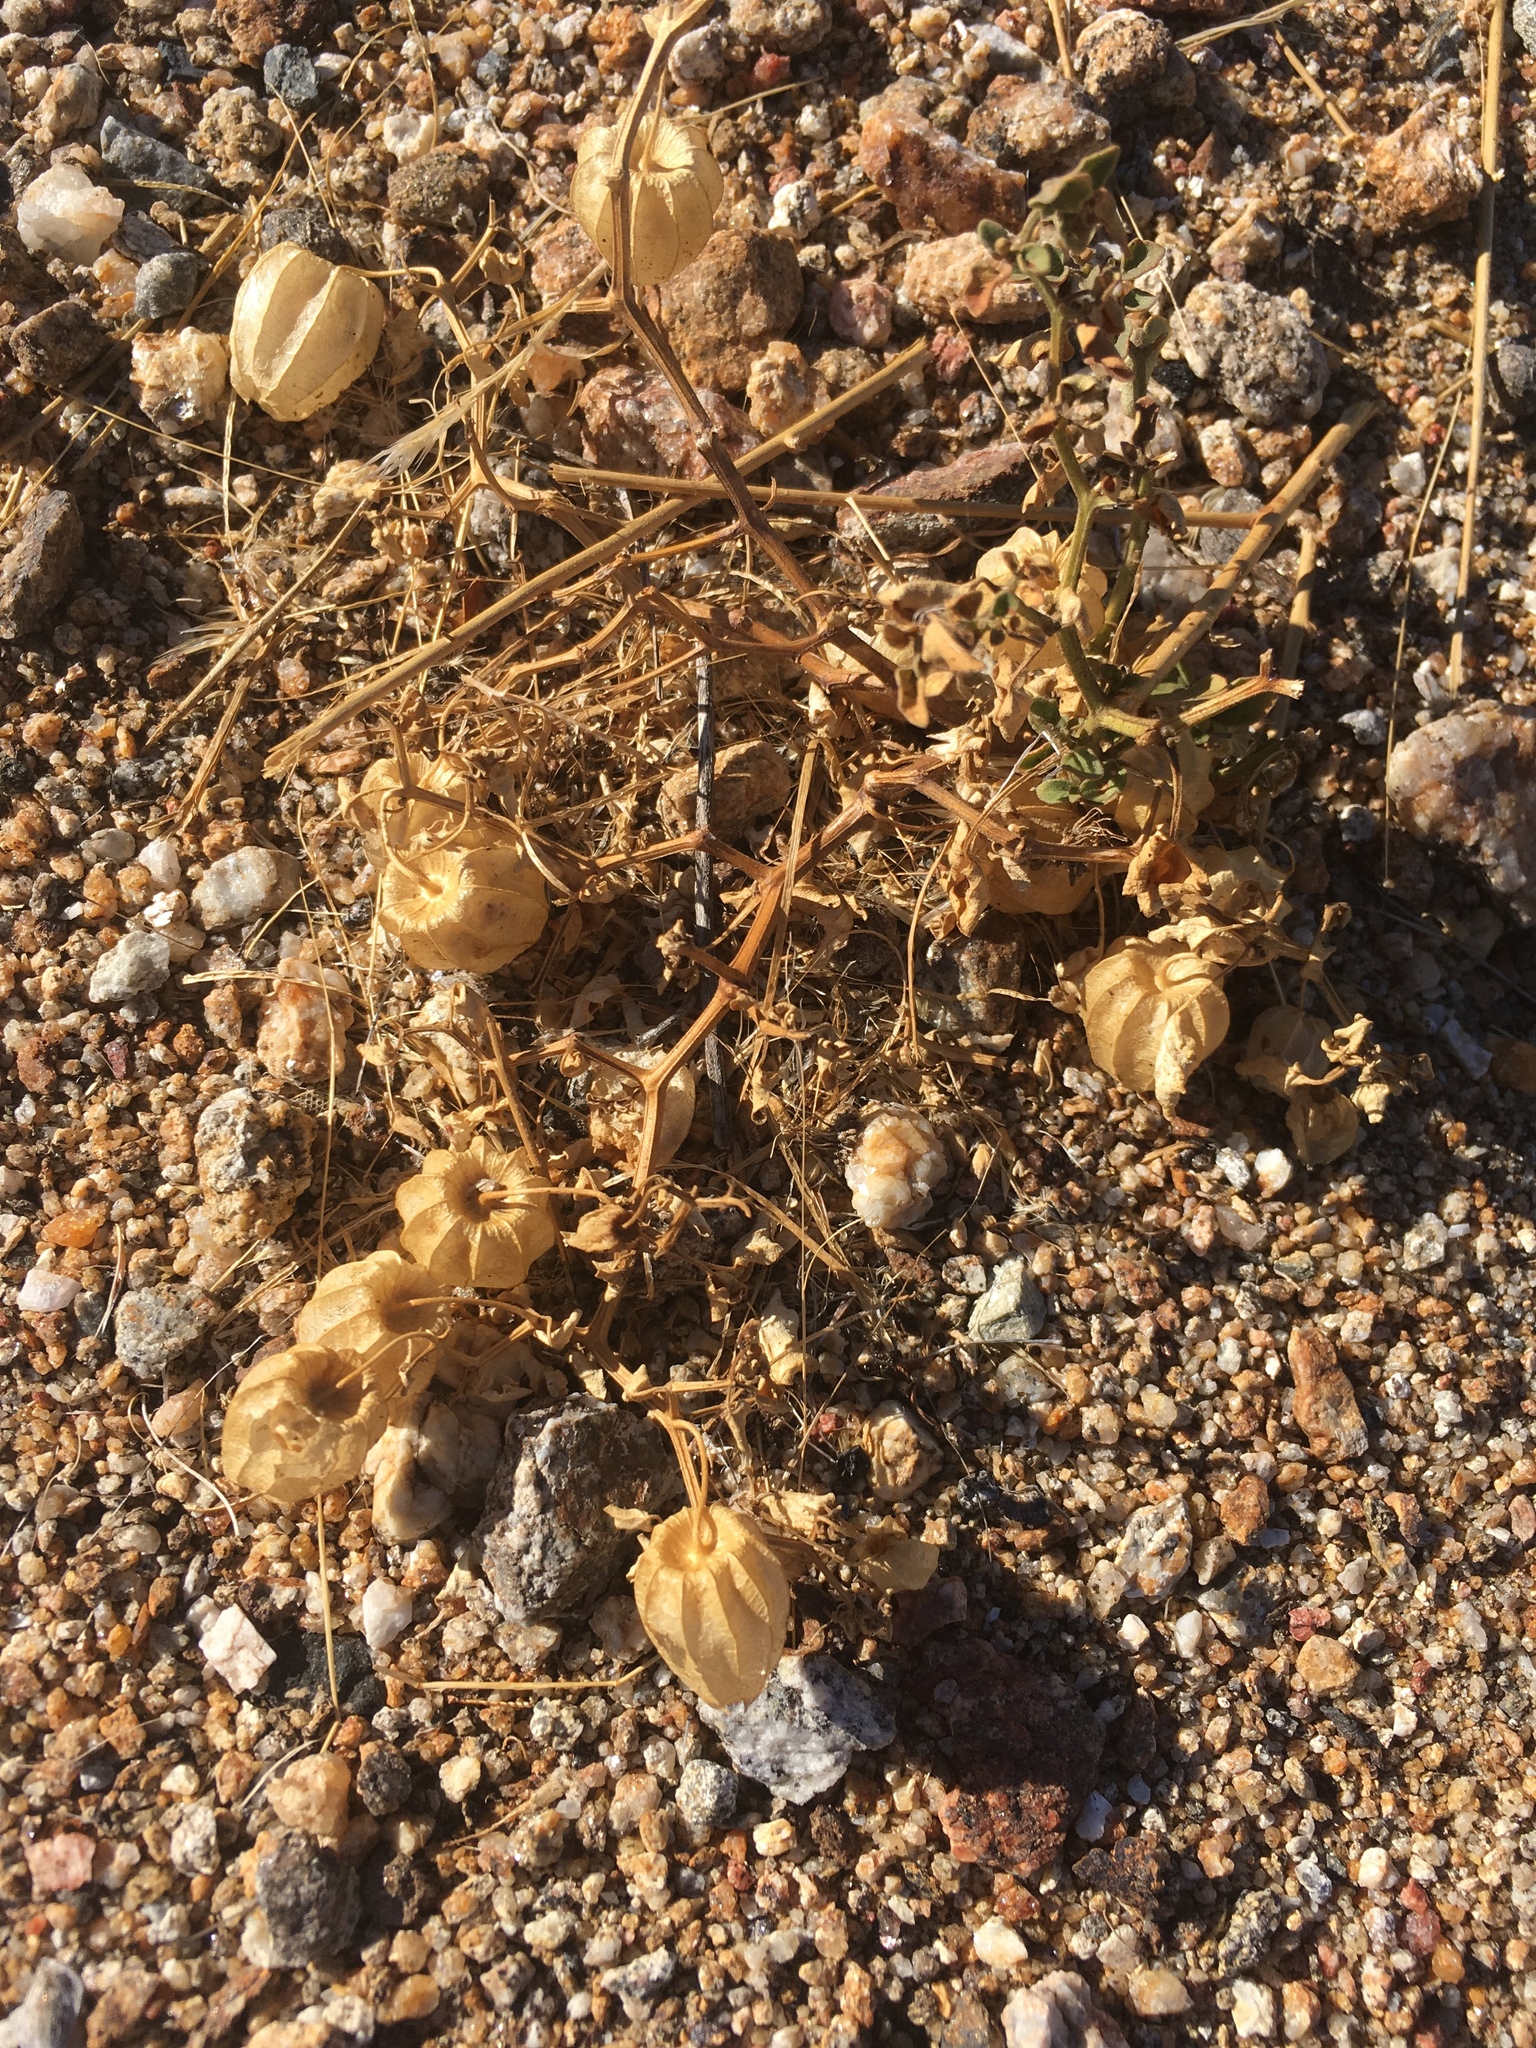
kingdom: Plantae
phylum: Tracheophyta
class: Magnoliopsida
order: Solanales
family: Solanaceae
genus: Physalis
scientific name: Physalis crassifolia
